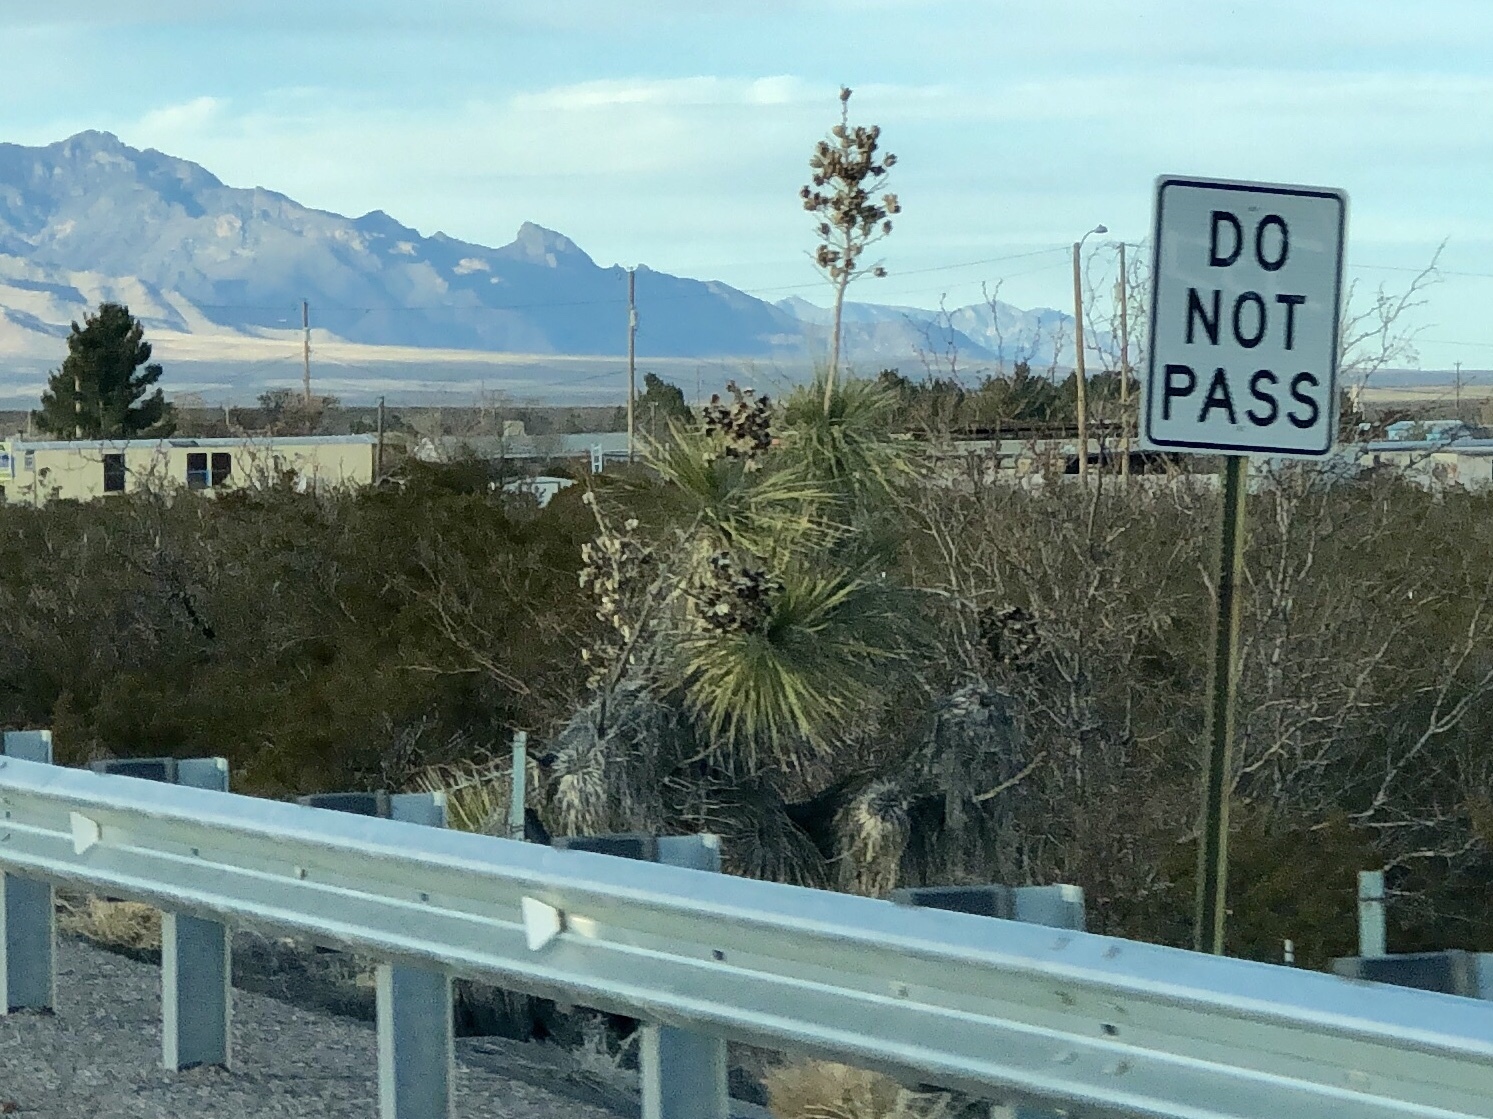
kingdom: Plantae
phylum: Tracheophyta
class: Liliopsida
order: Asparagales
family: Asparagaceae
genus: Yucca
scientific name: Yucca elata
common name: Palmella
